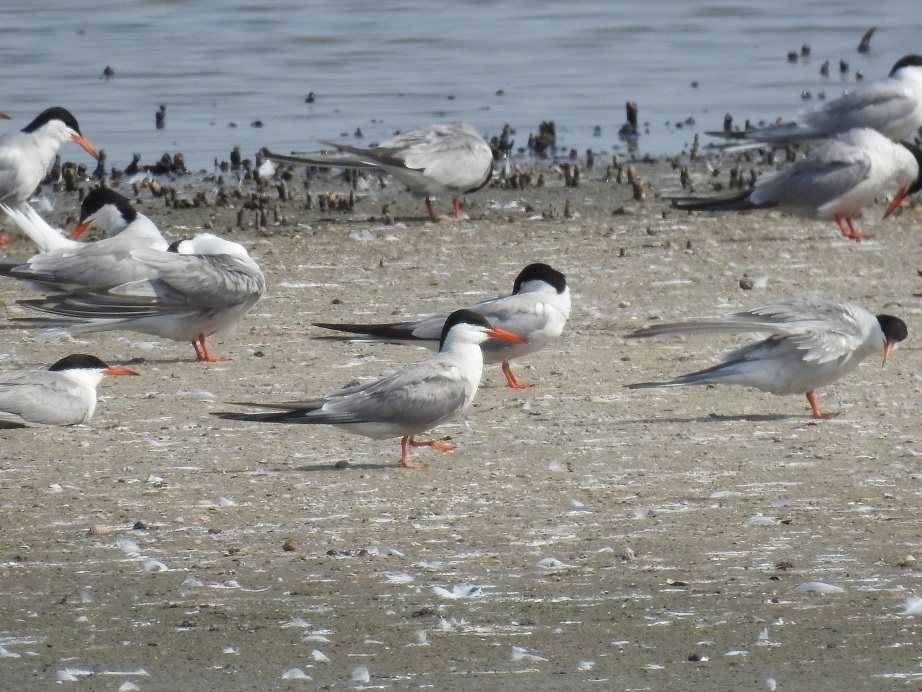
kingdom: Animalia
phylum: Chordata
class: Aves
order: Charadriiformes
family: Laridae
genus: Sterna
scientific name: Sterna hirundo
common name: Common tern
